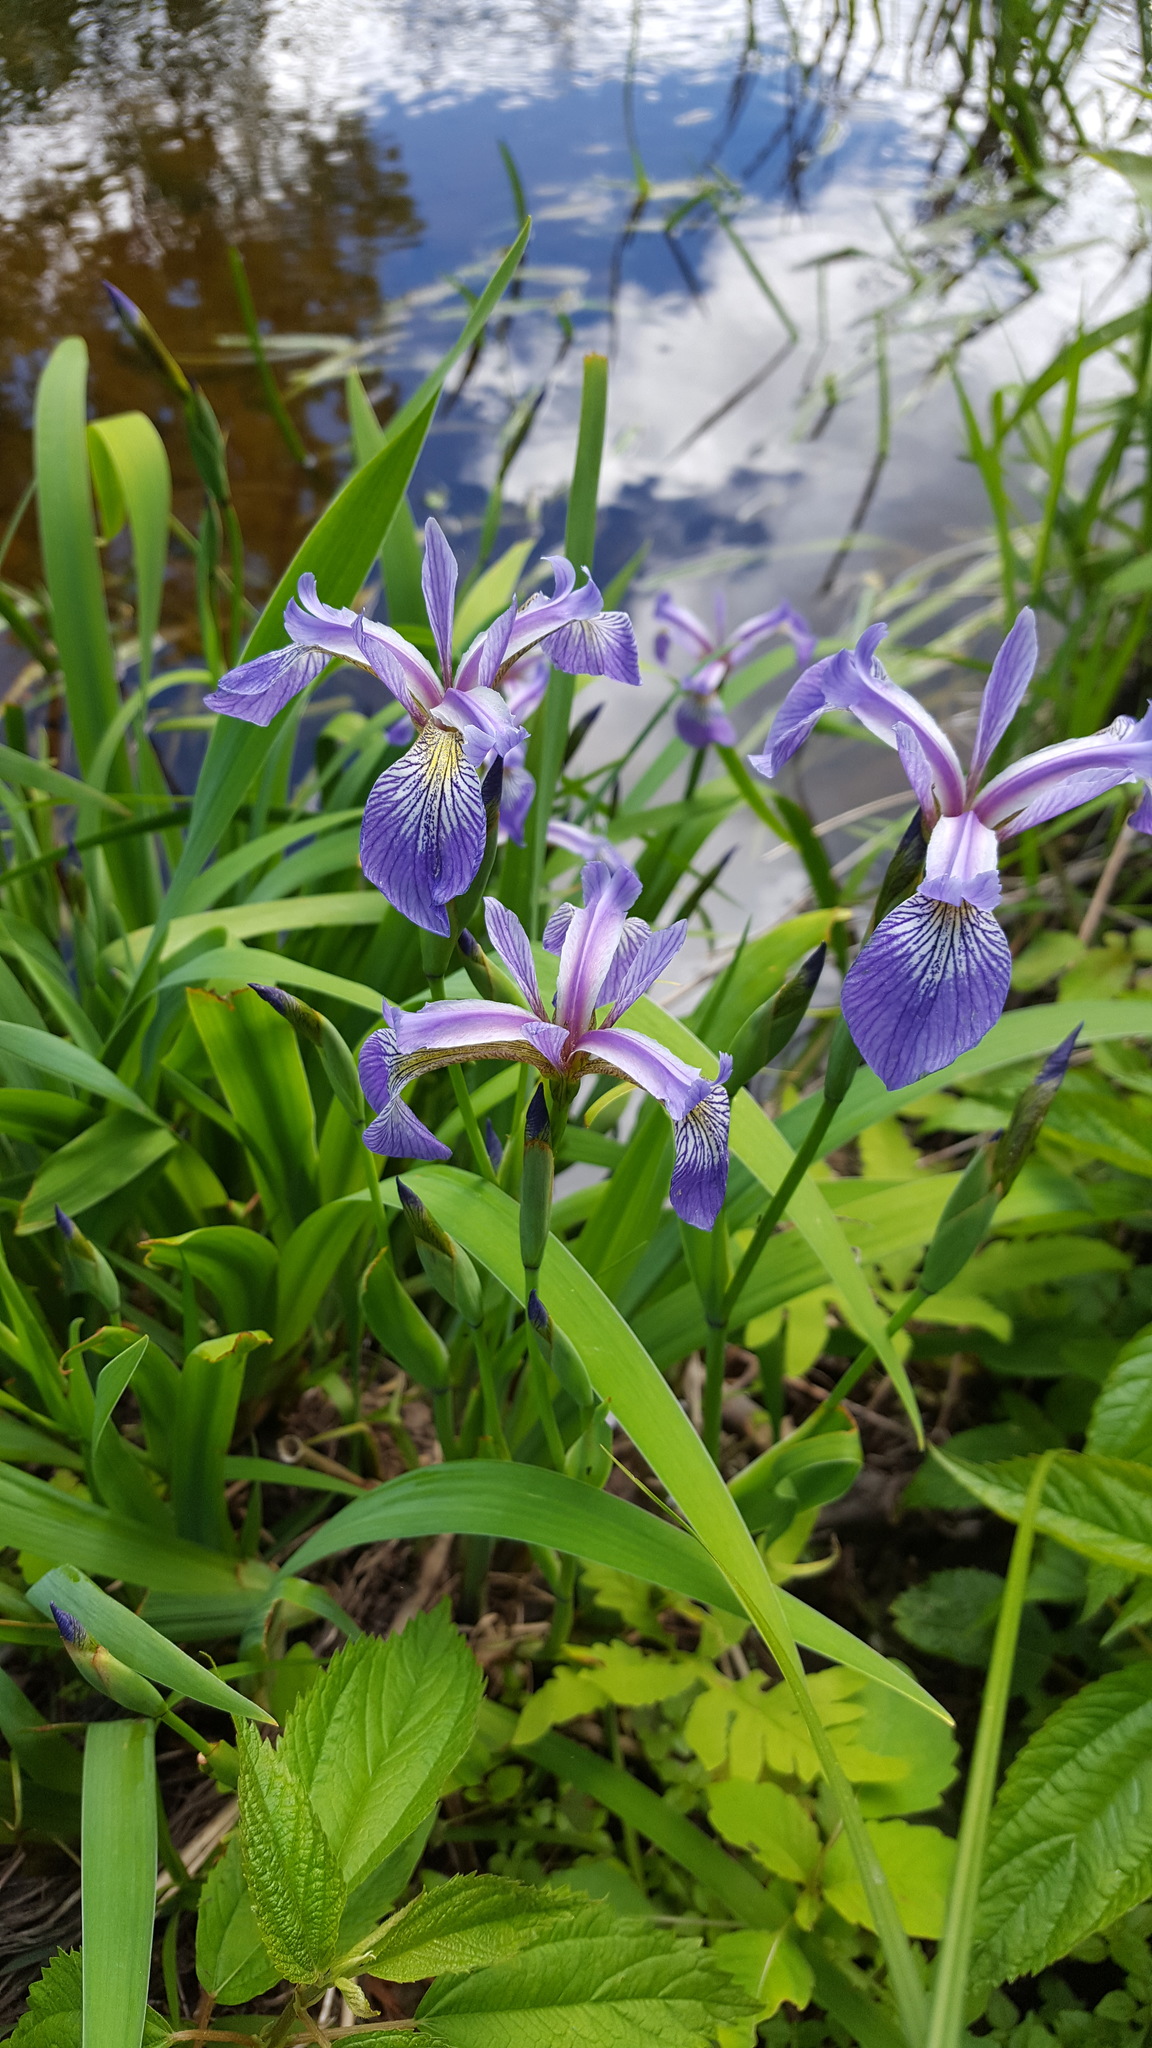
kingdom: Plantae
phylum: Tracheophyta
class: Liliopsida
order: Asparagales
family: Iridaceae
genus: Iris
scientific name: Iris versicolor
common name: Purple iris
